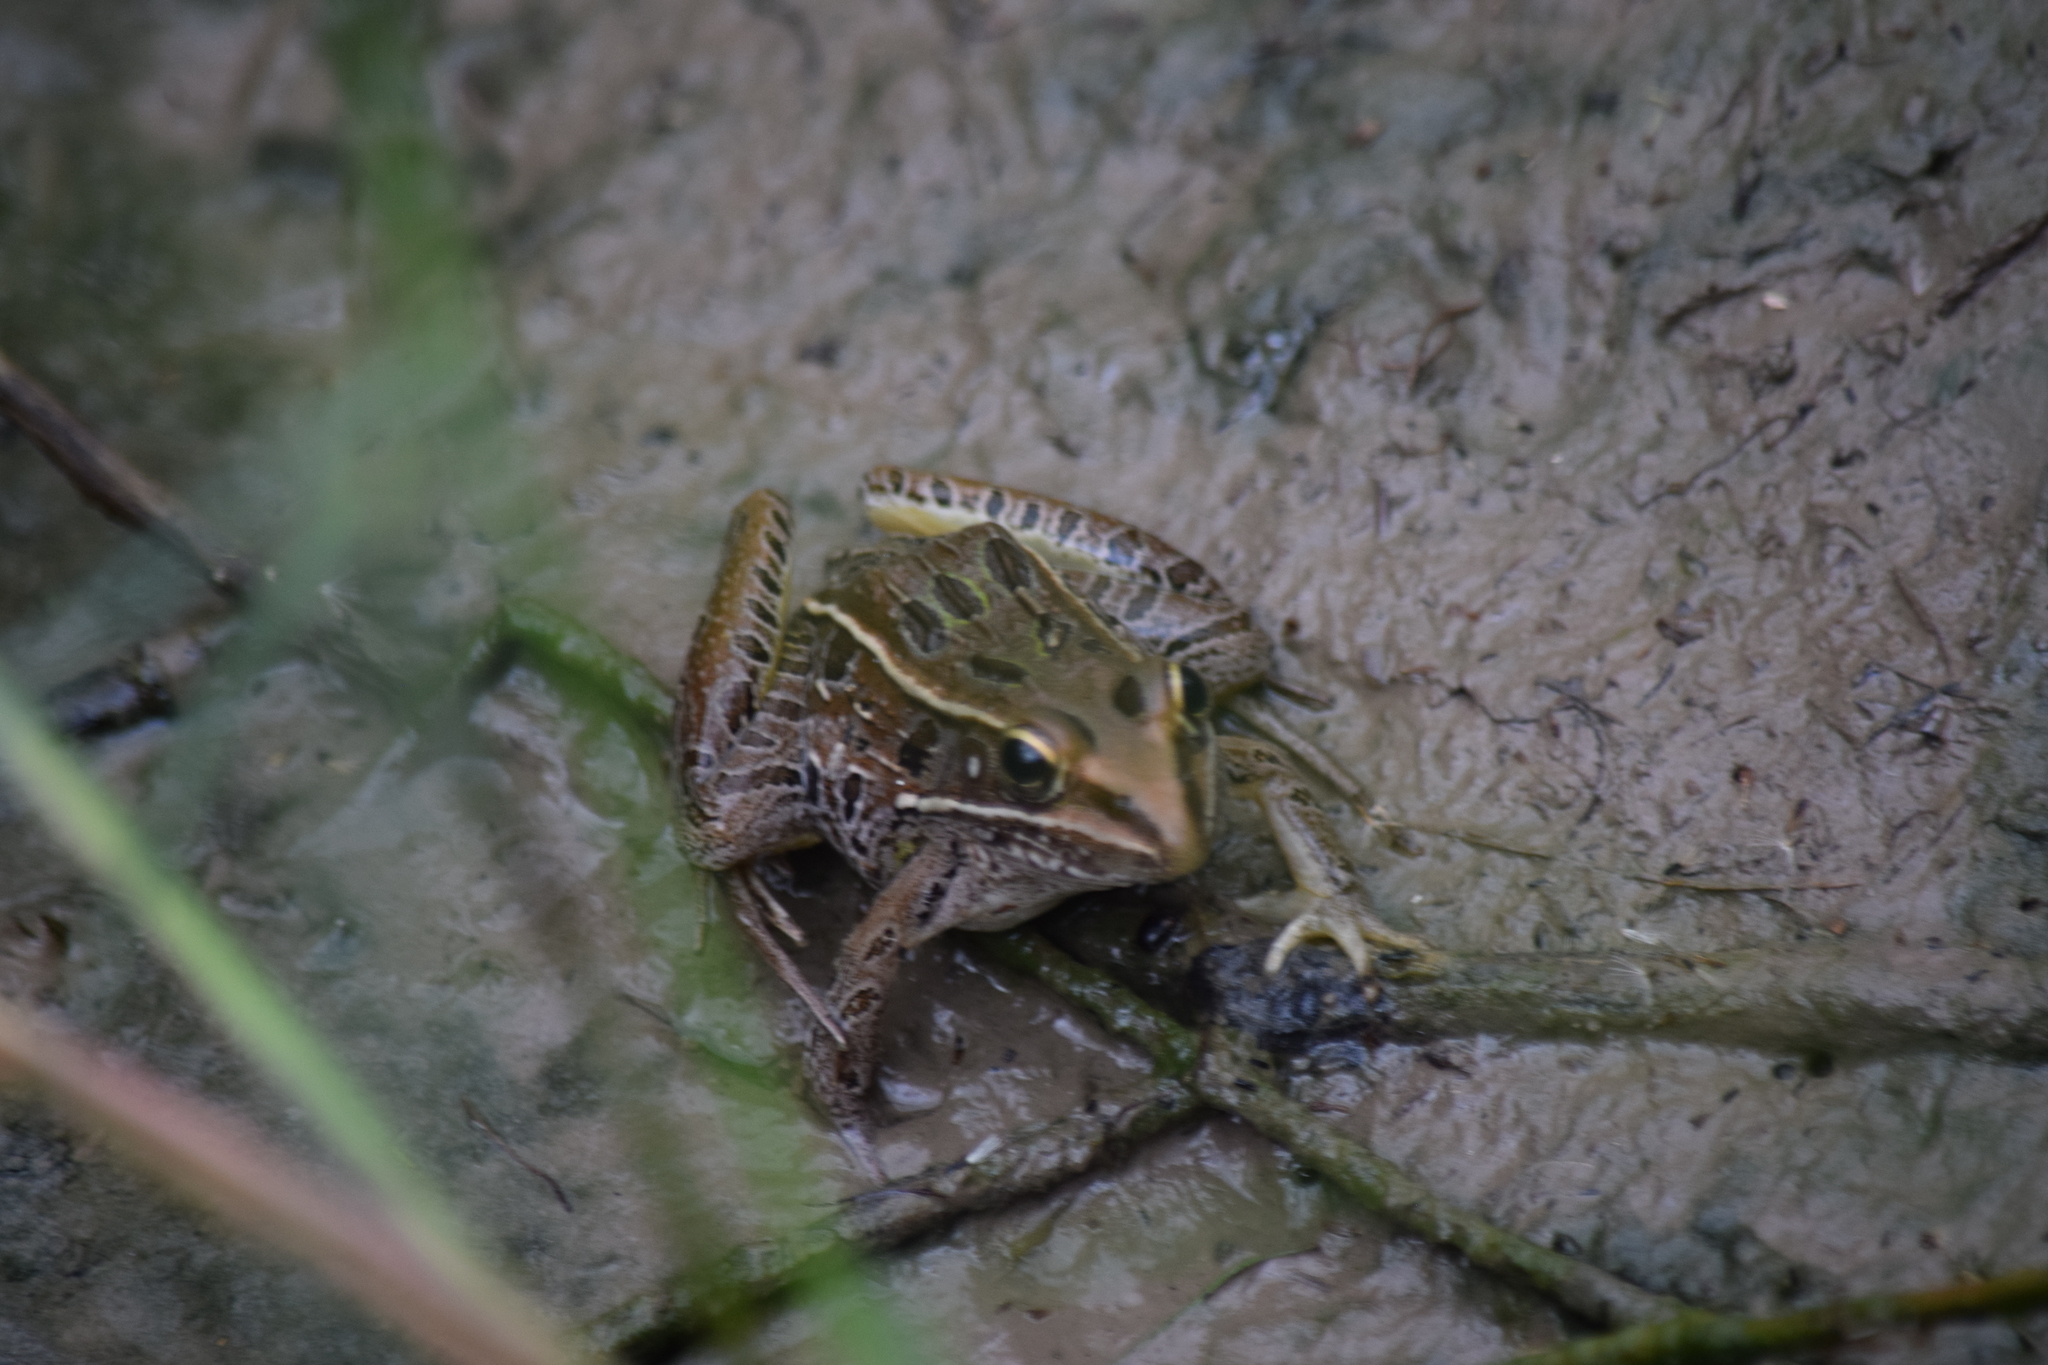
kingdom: Animalia
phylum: Chordata
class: Amphibia
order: Anura
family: Ranidae
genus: Lithobates
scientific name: Lithobates sphenocephalus
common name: Southern leopard frog
